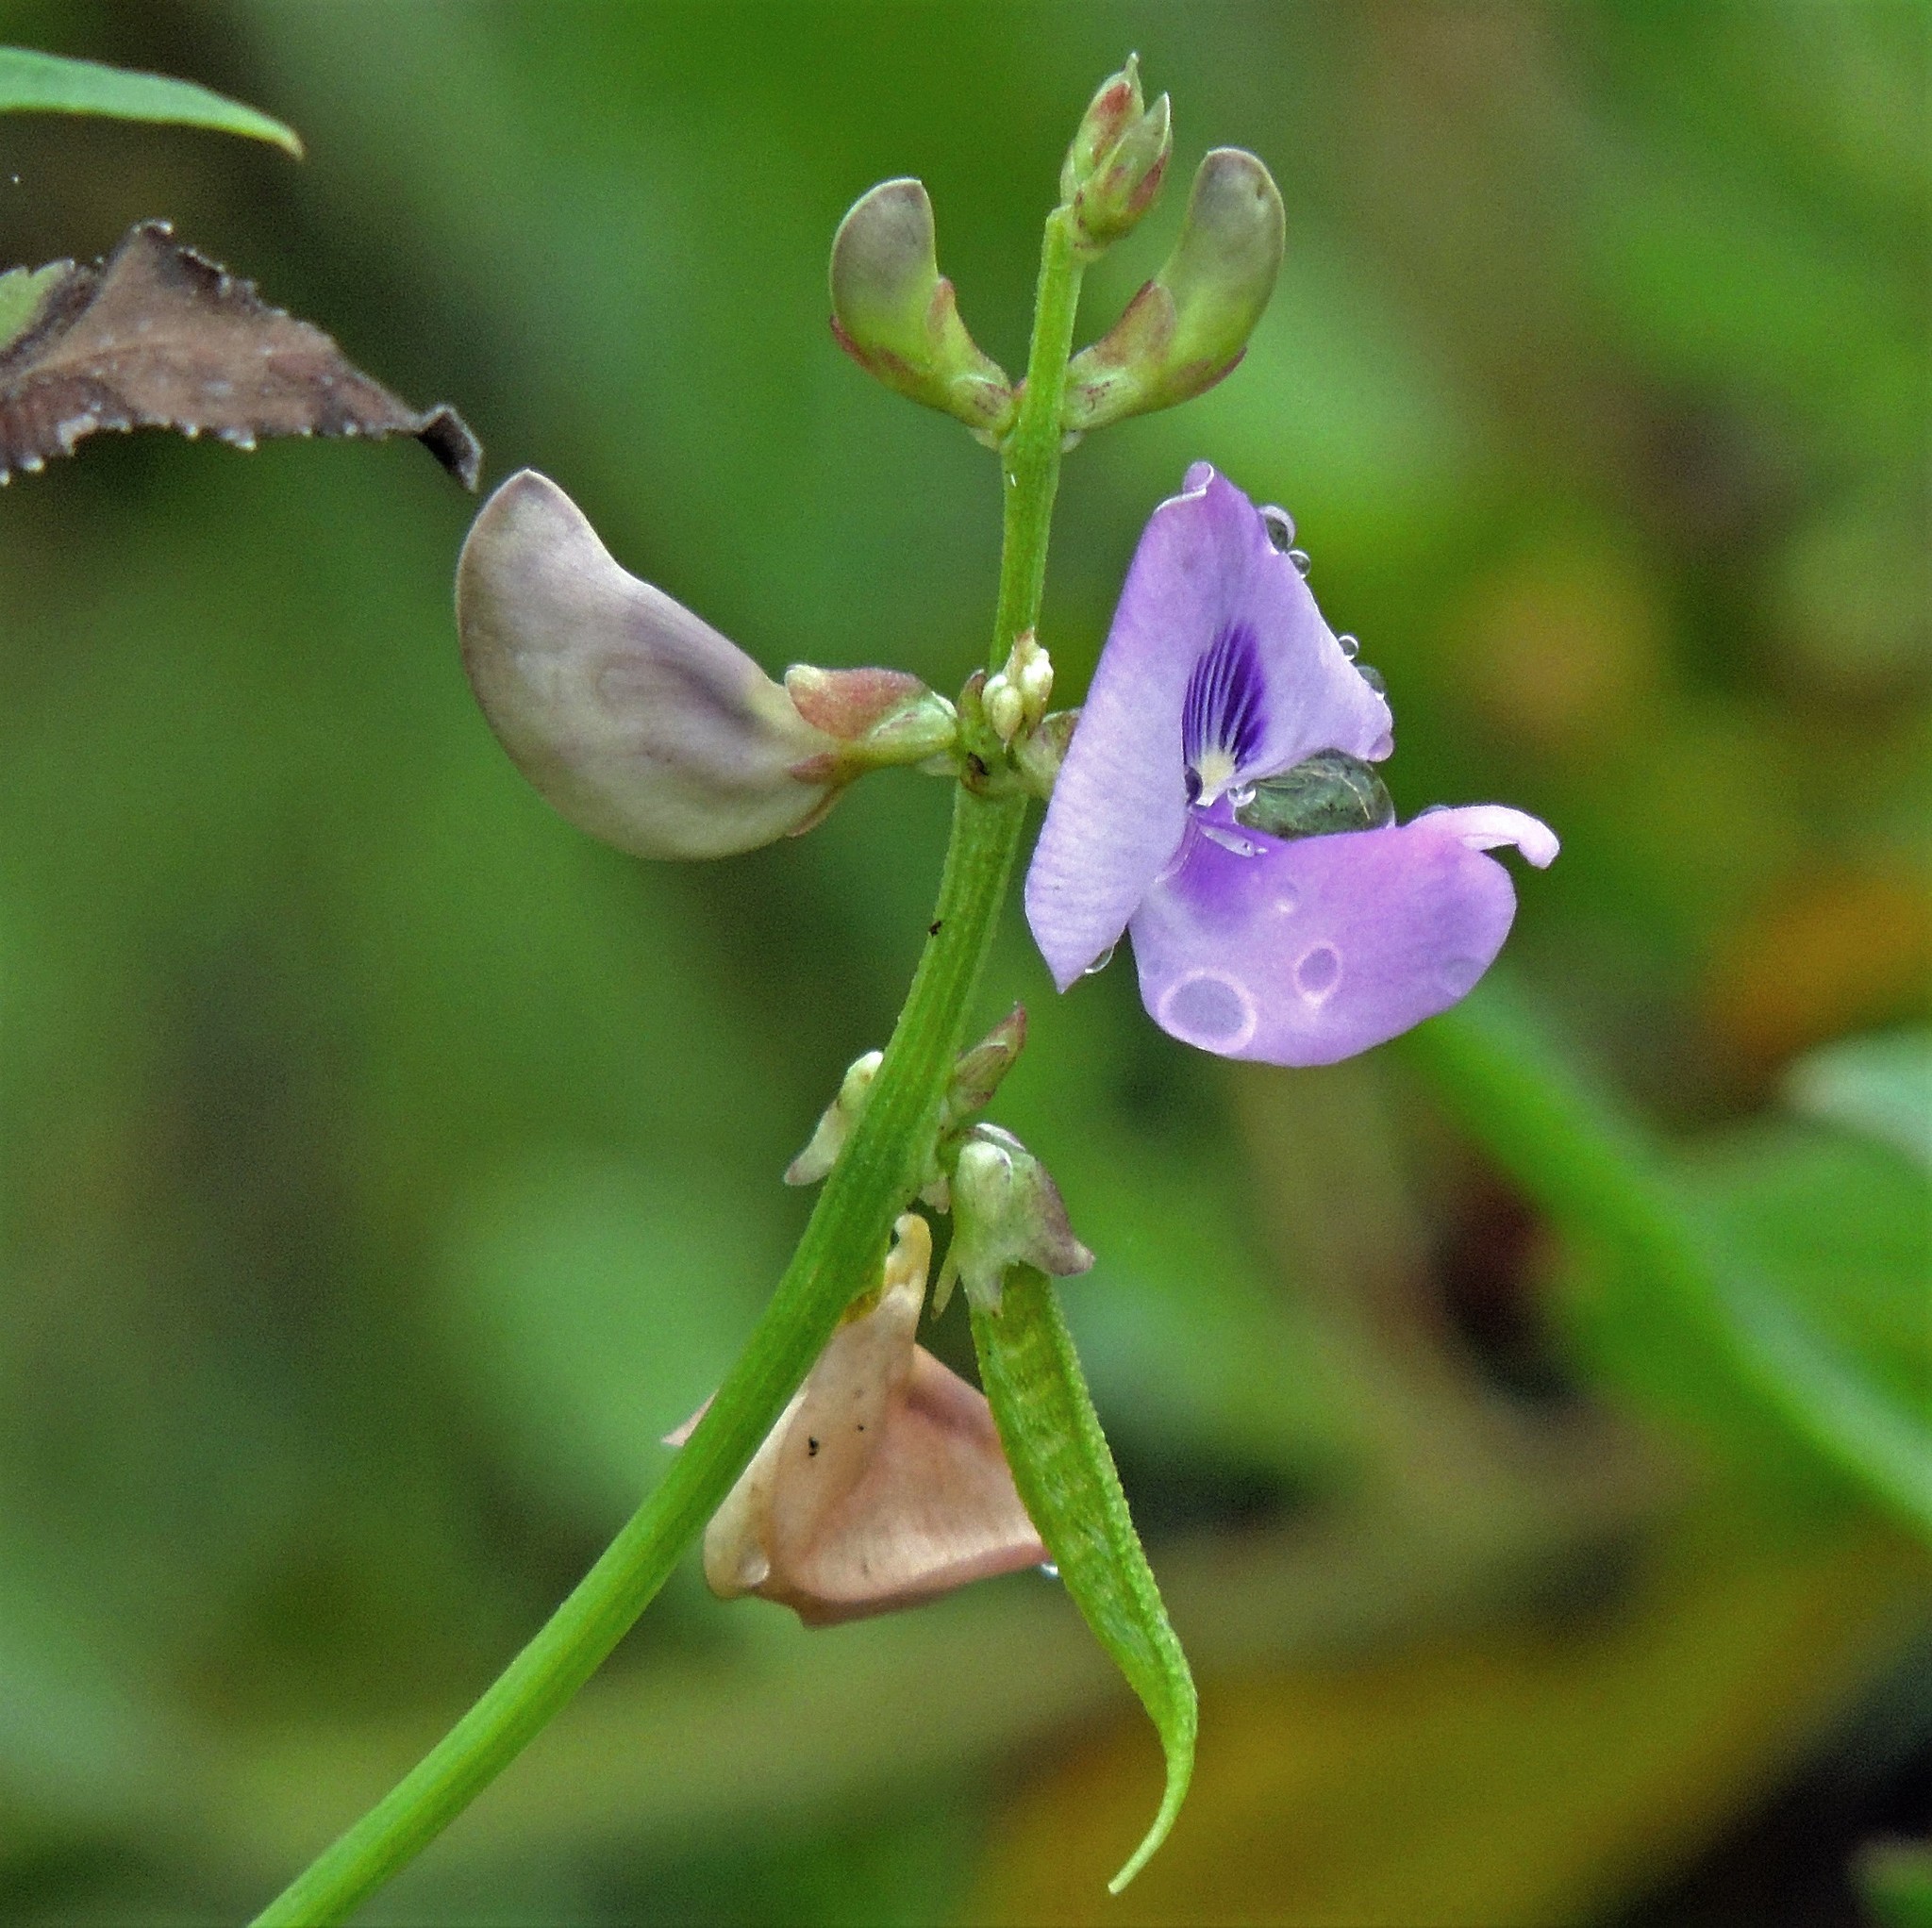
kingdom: Plantae
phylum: Tracheophyta
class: Magnoliopsida
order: Fabales
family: Fabaceae
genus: Dolichopsis
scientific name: Dolichopsis paraguariensis
